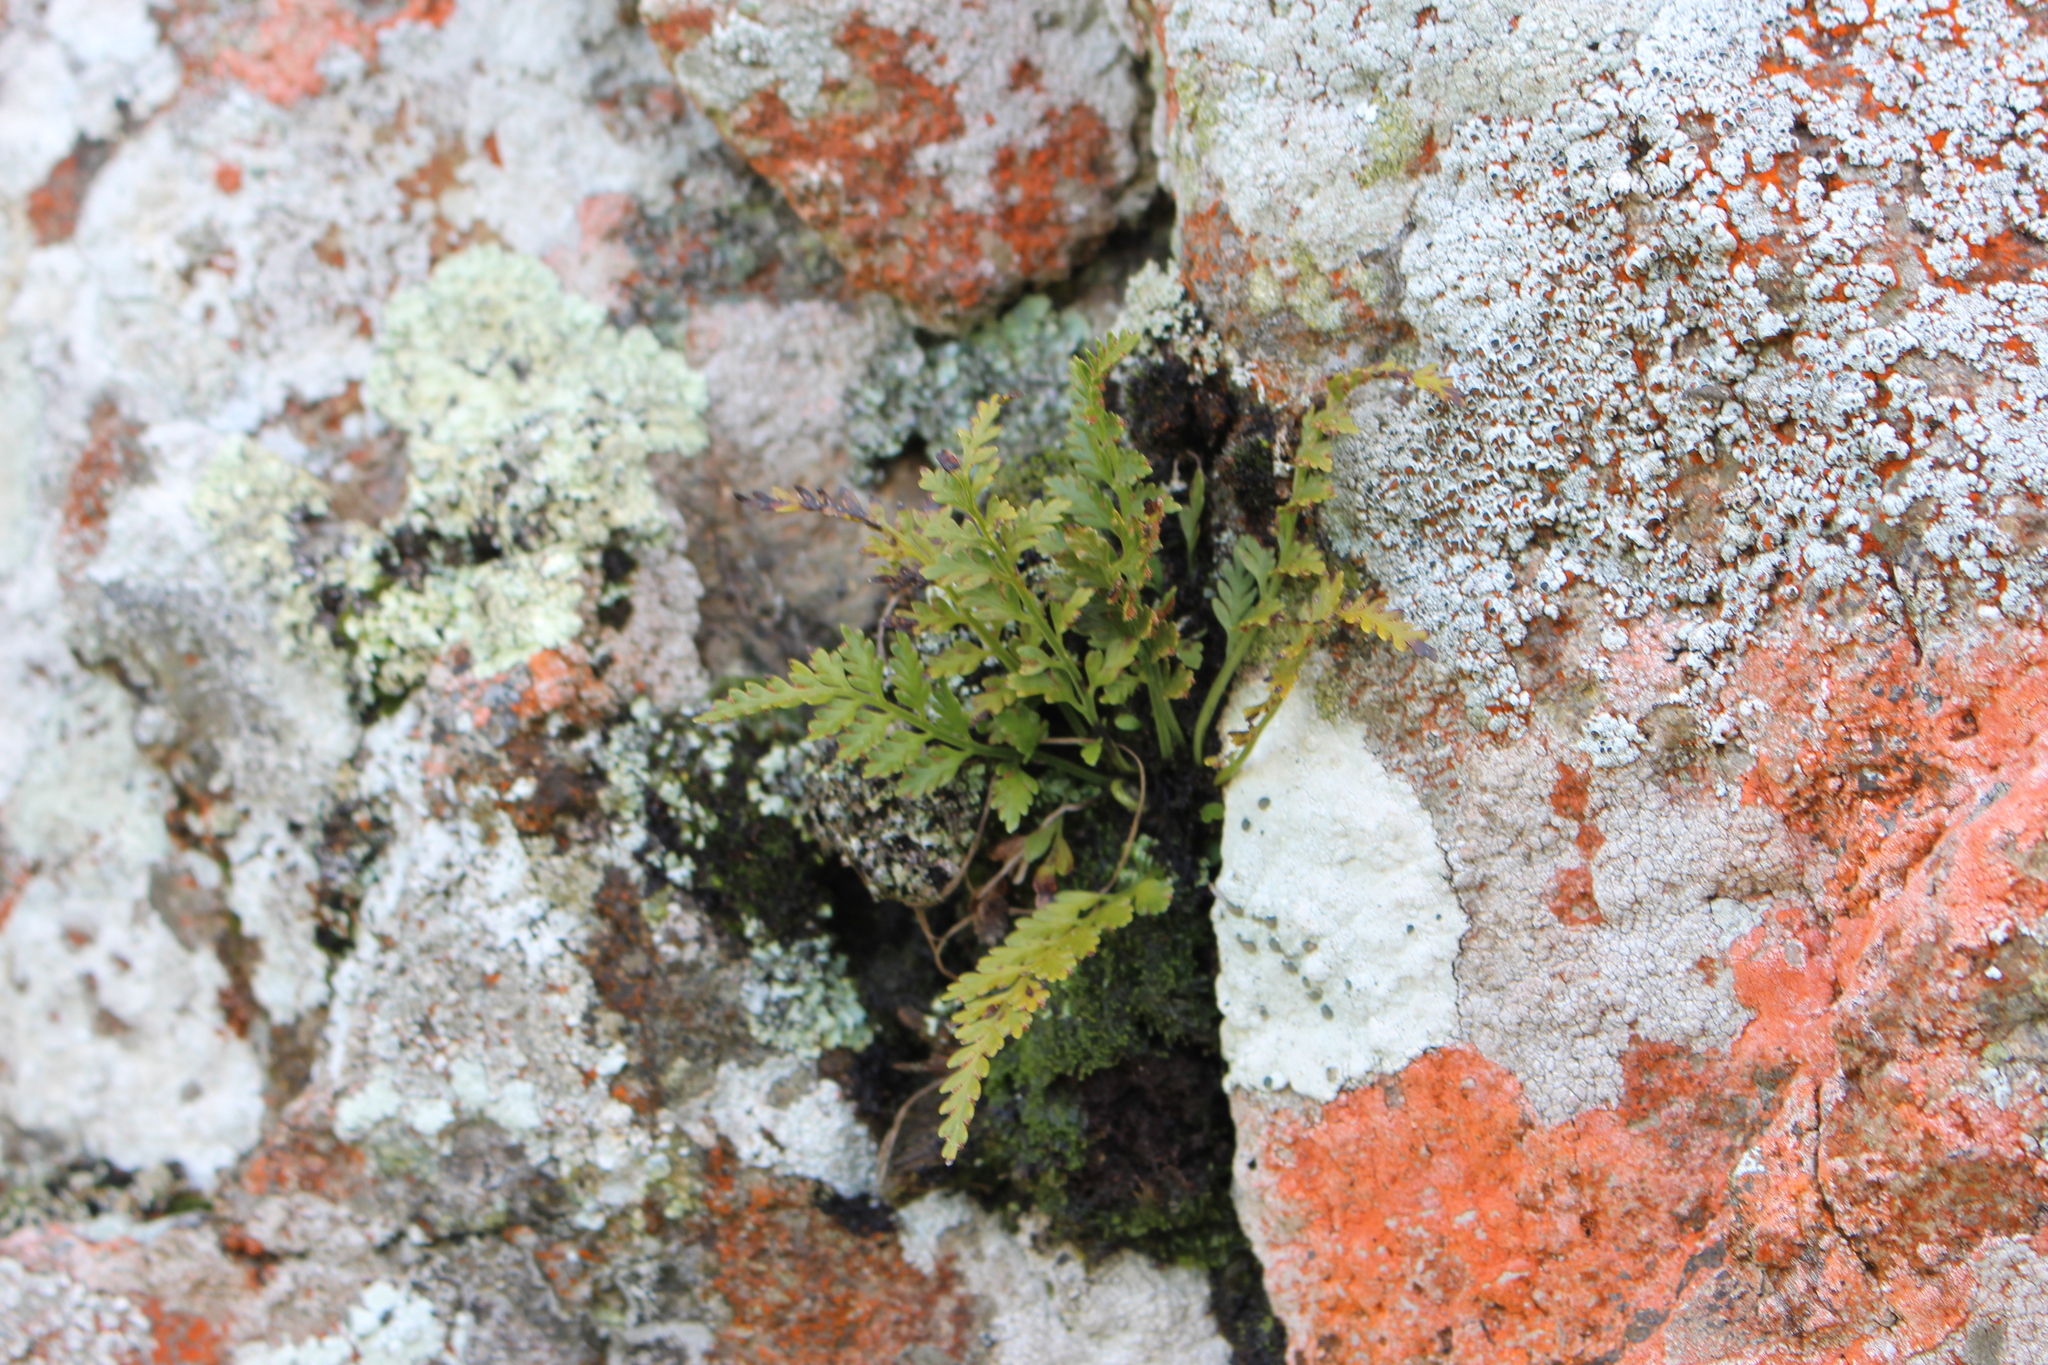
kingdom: Plantae
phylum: Tracheophyta
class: Polypodiopsida
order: Polypodiales
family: Aspleniaceae
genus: Asplenium
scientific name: Asplenium appendiculatum
